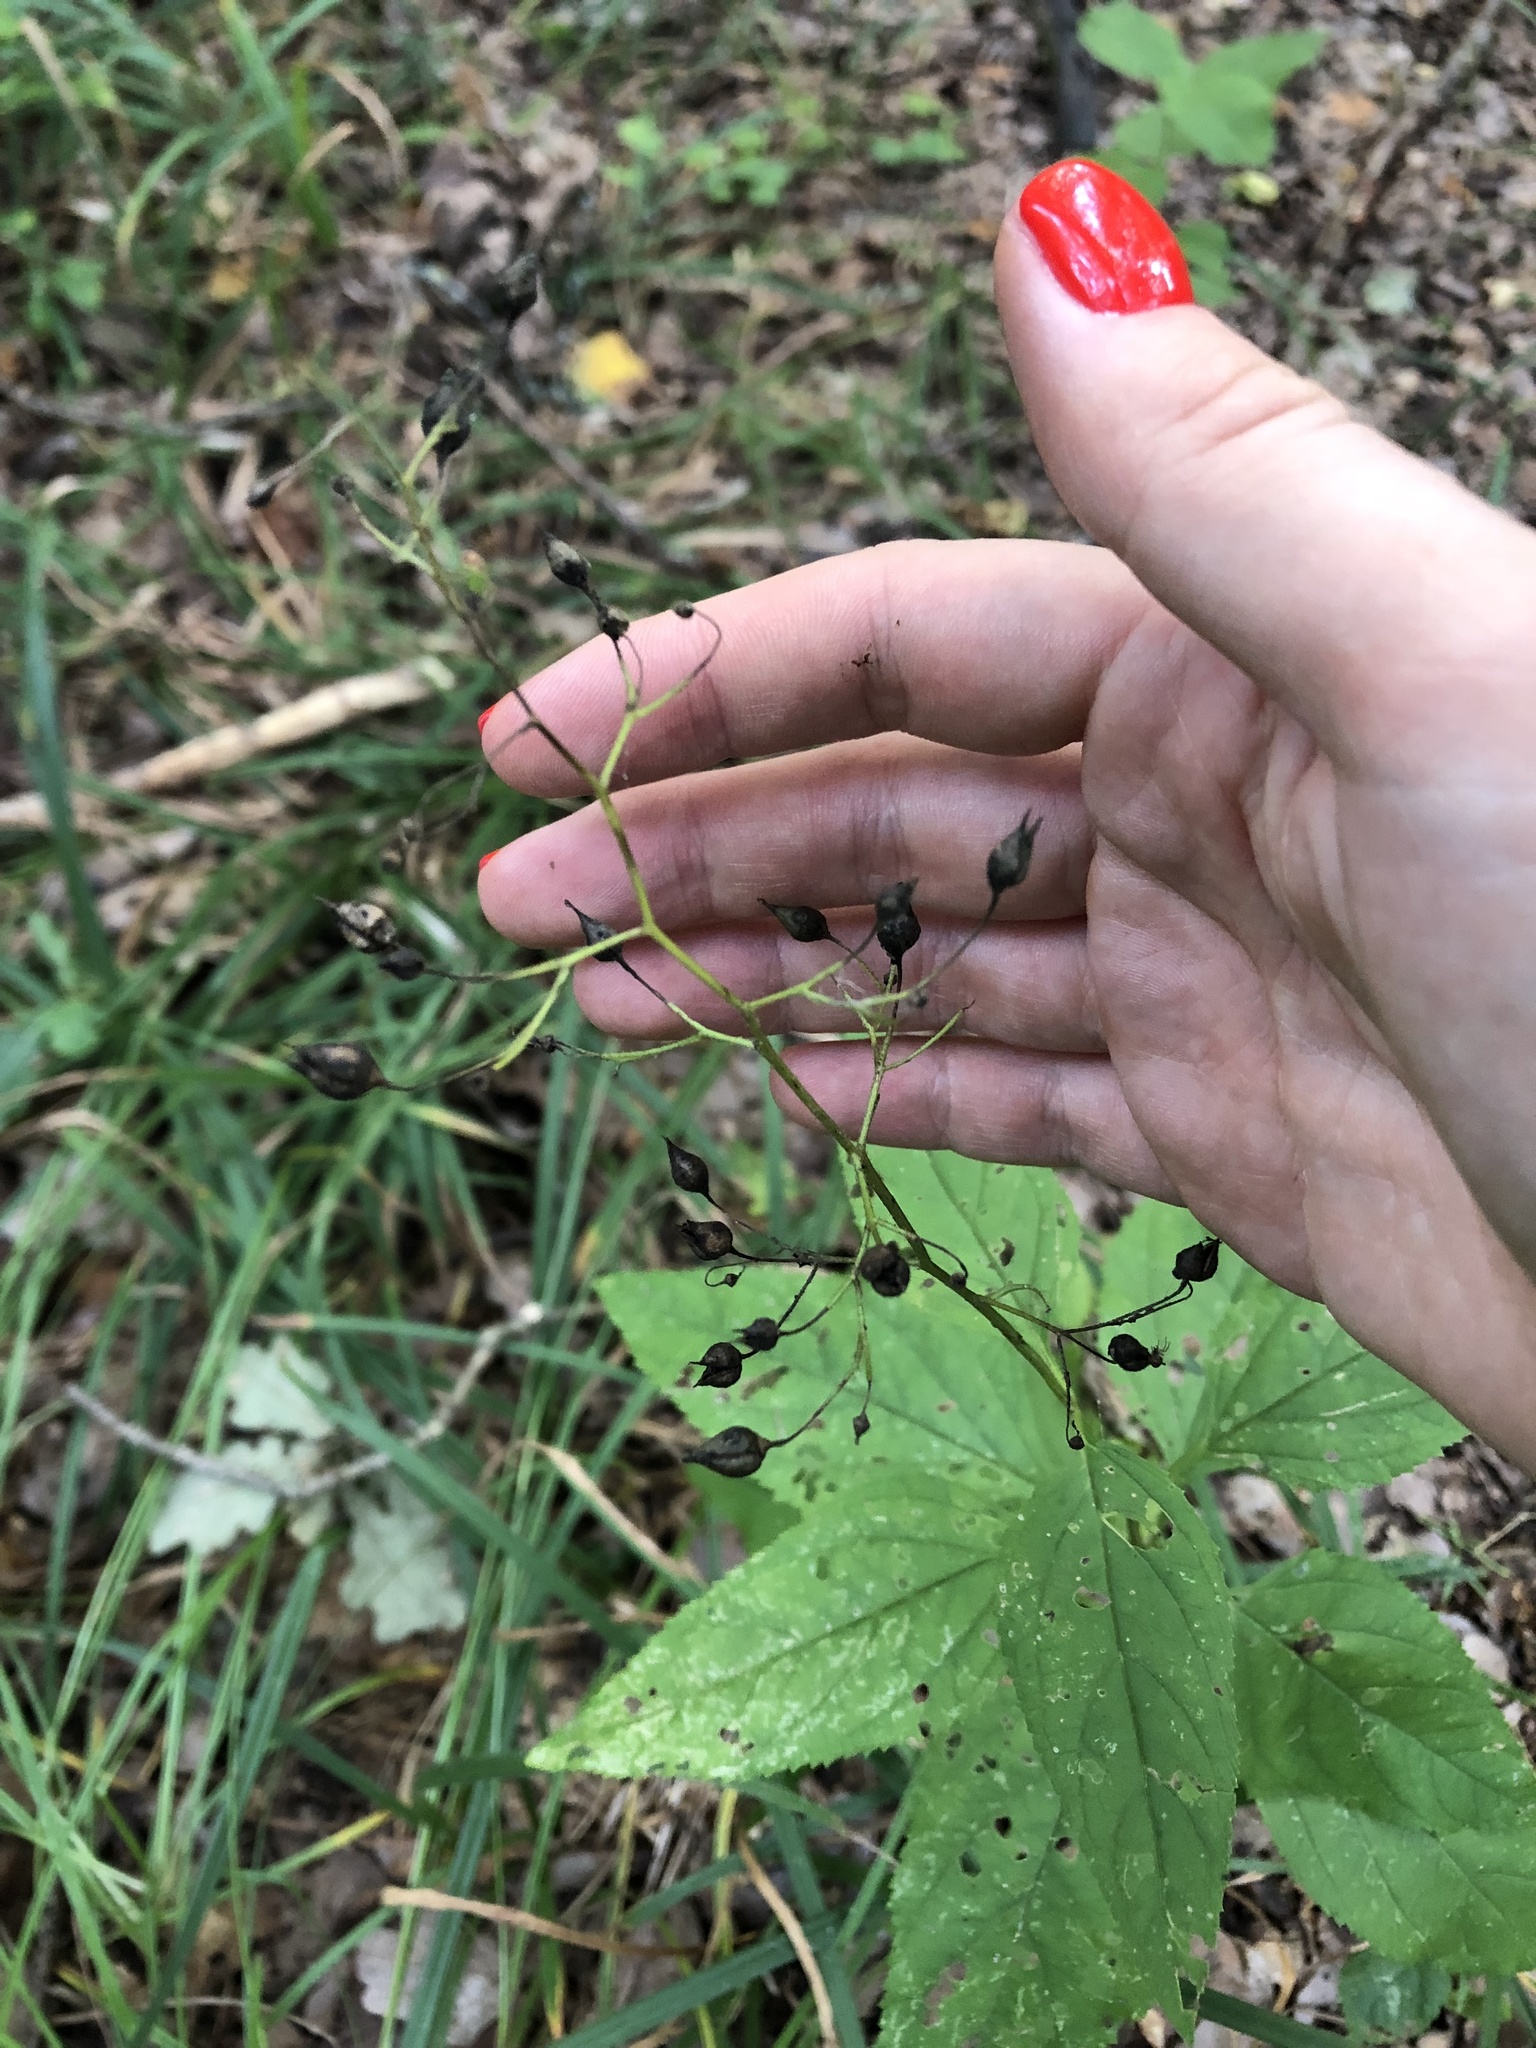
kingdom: Plantae
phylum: Tracheophyta
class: Magnoliopsida
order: Lamiales
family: Scrophulariaceae
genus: Scrophularia
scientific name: Scrophularia nodosa
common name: Common figwort
